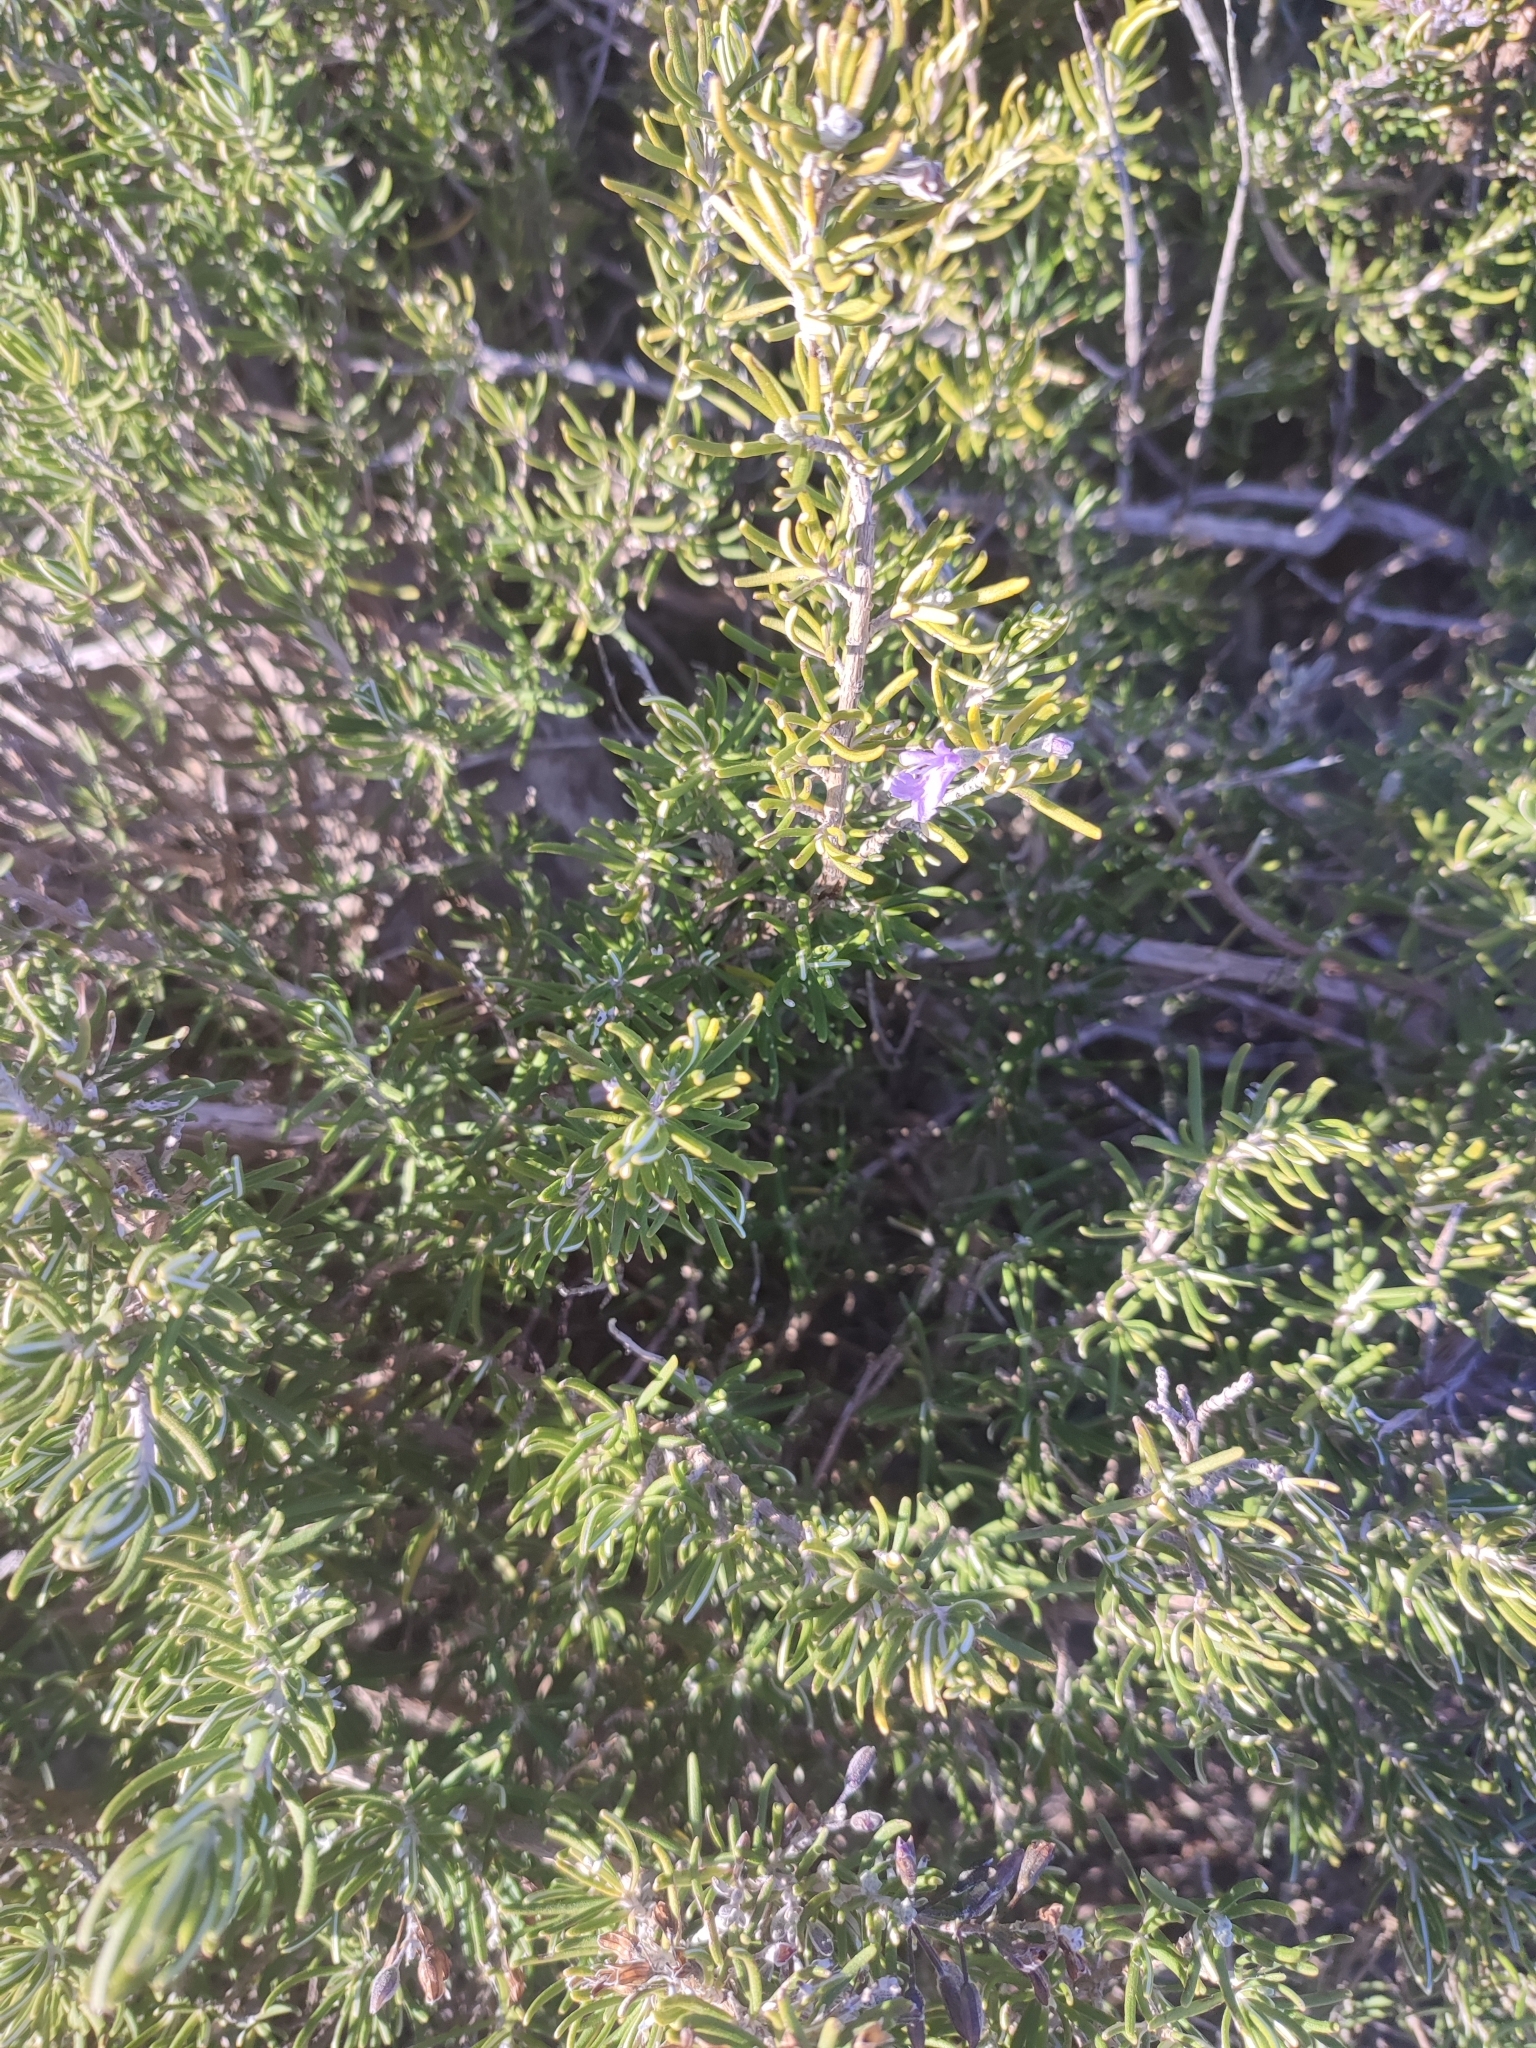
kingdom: Plantae
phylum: Tracheophyta
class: Magnoliopsida
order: Lamiales
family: Lamiaceae
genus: Salvia
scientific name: Salvia rosmarinus
